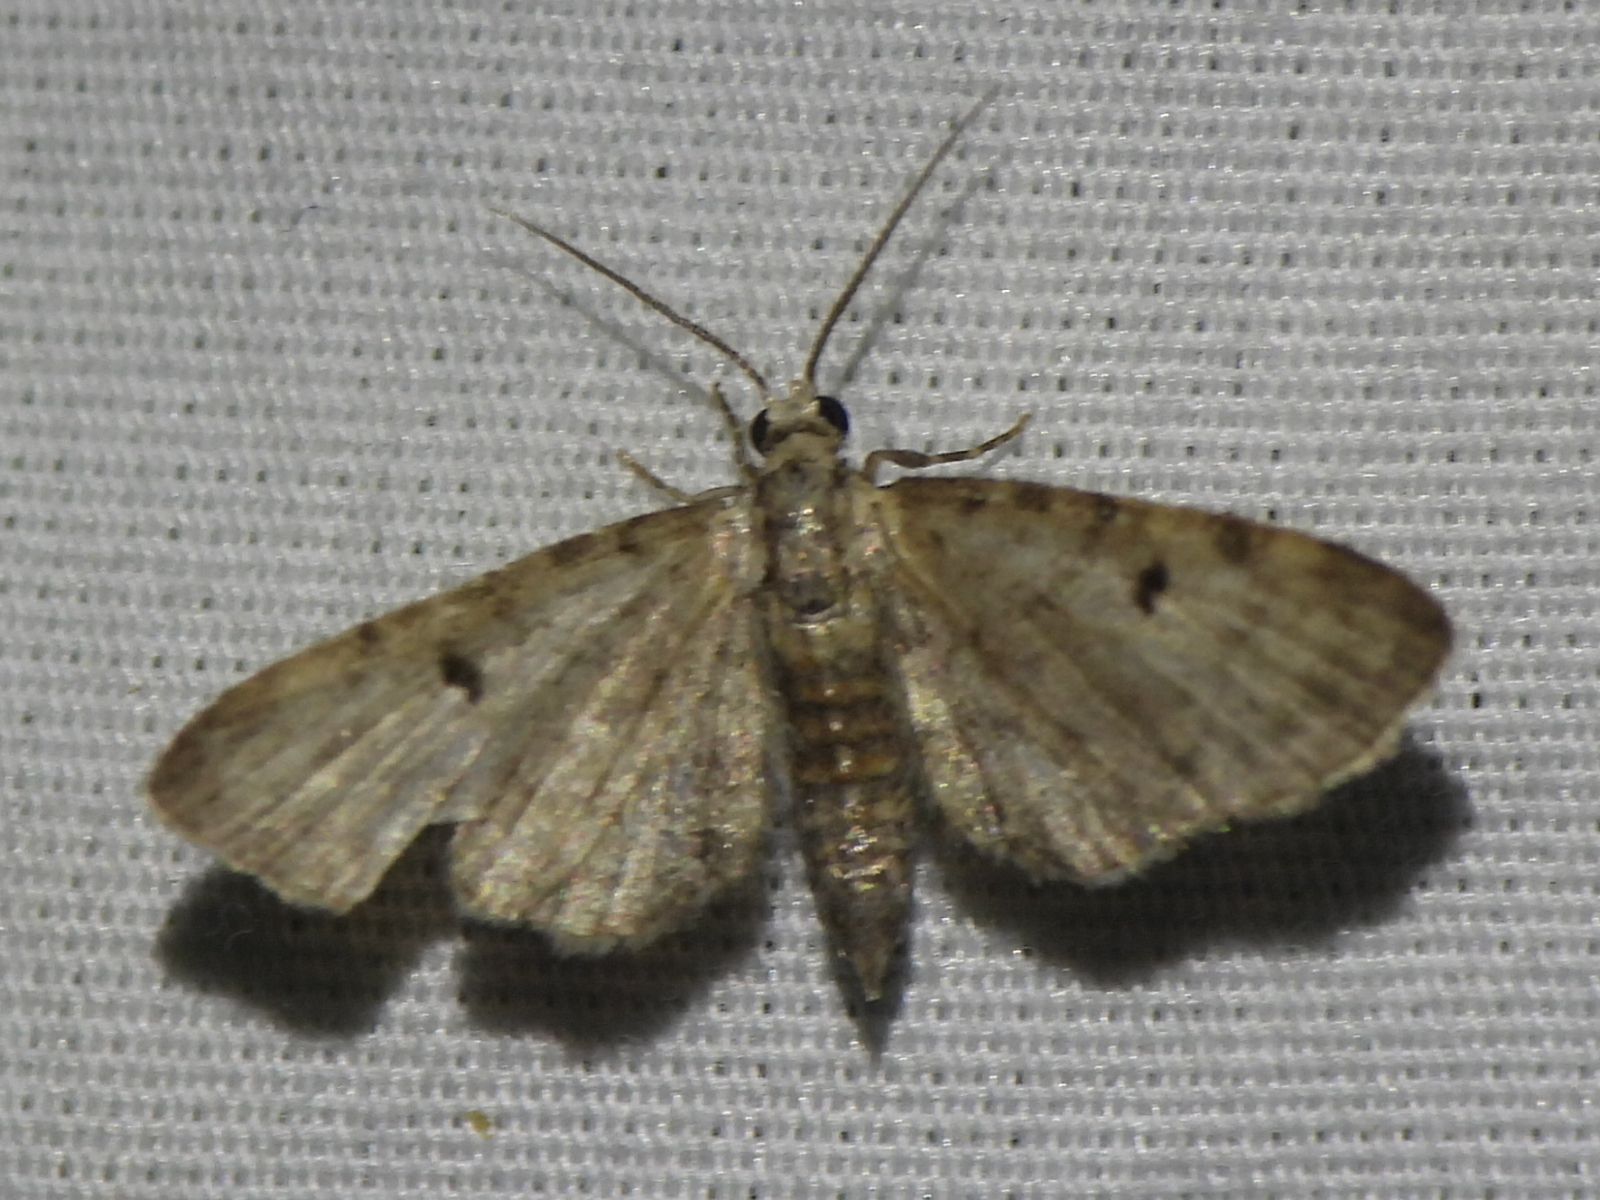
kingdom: Animalia
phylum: Arthropoda
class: Insecta
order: Lepidoptera
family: Geometridae
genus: Eupithecia
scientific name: Eupithecia miserulata
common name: Common eupithecia
